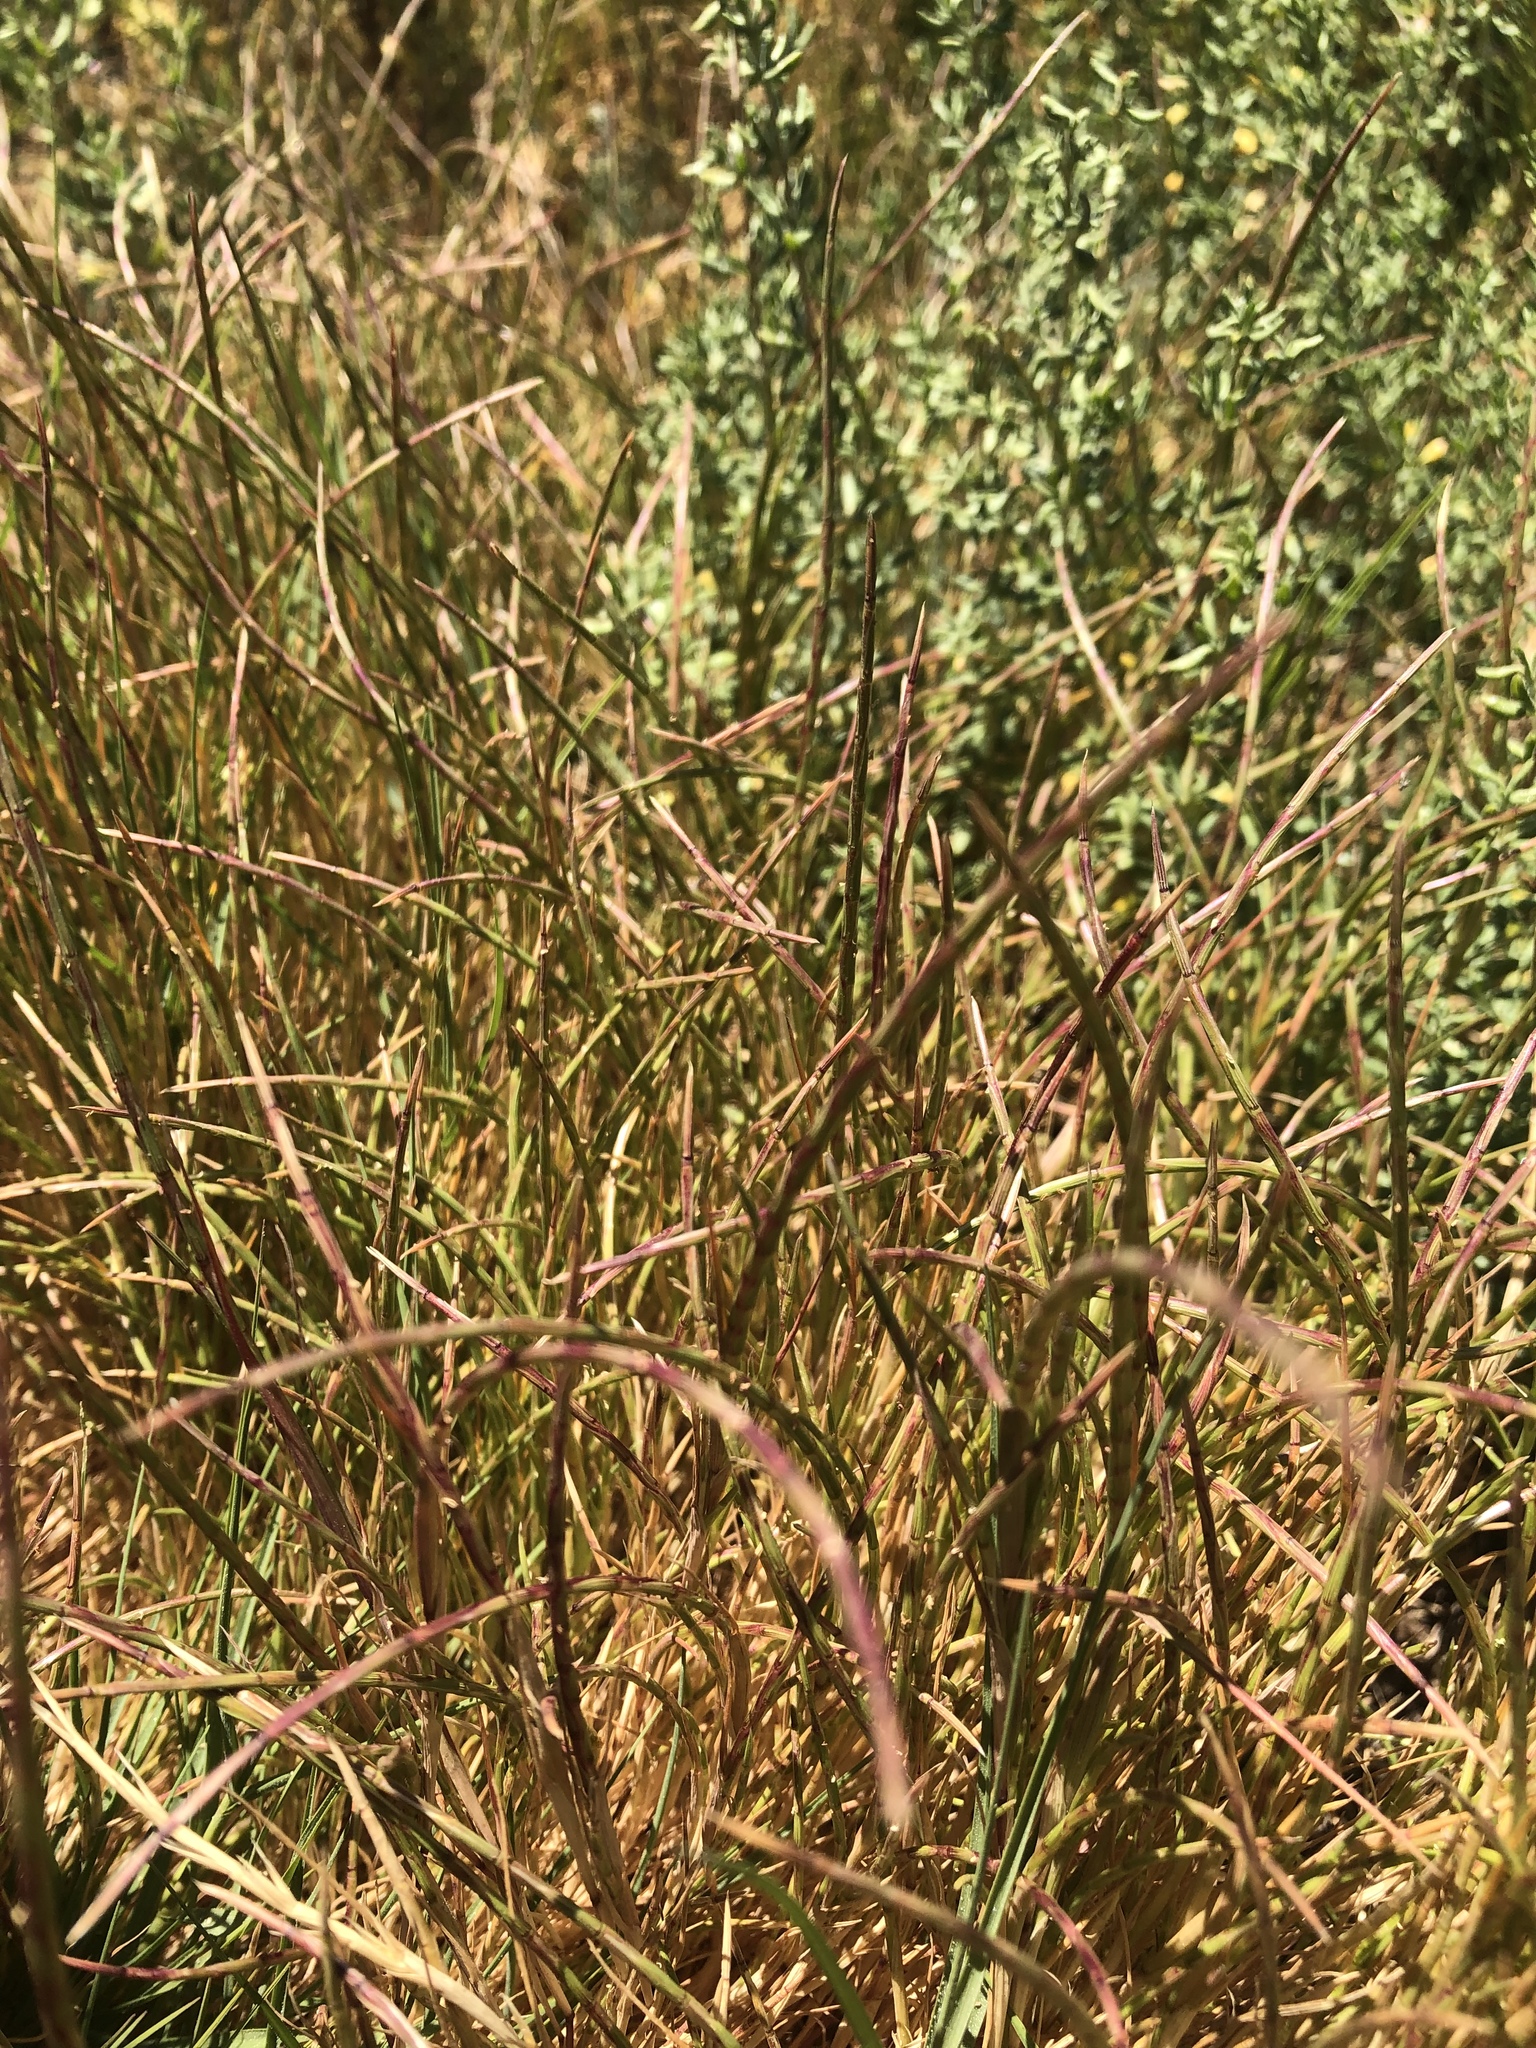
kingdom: Plantae
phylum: Tracheophyta
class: Liliopsida
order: Poales
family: Poaceae
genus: Parapholis
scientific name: Parapholis incurva
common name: Curved sicklegrass
